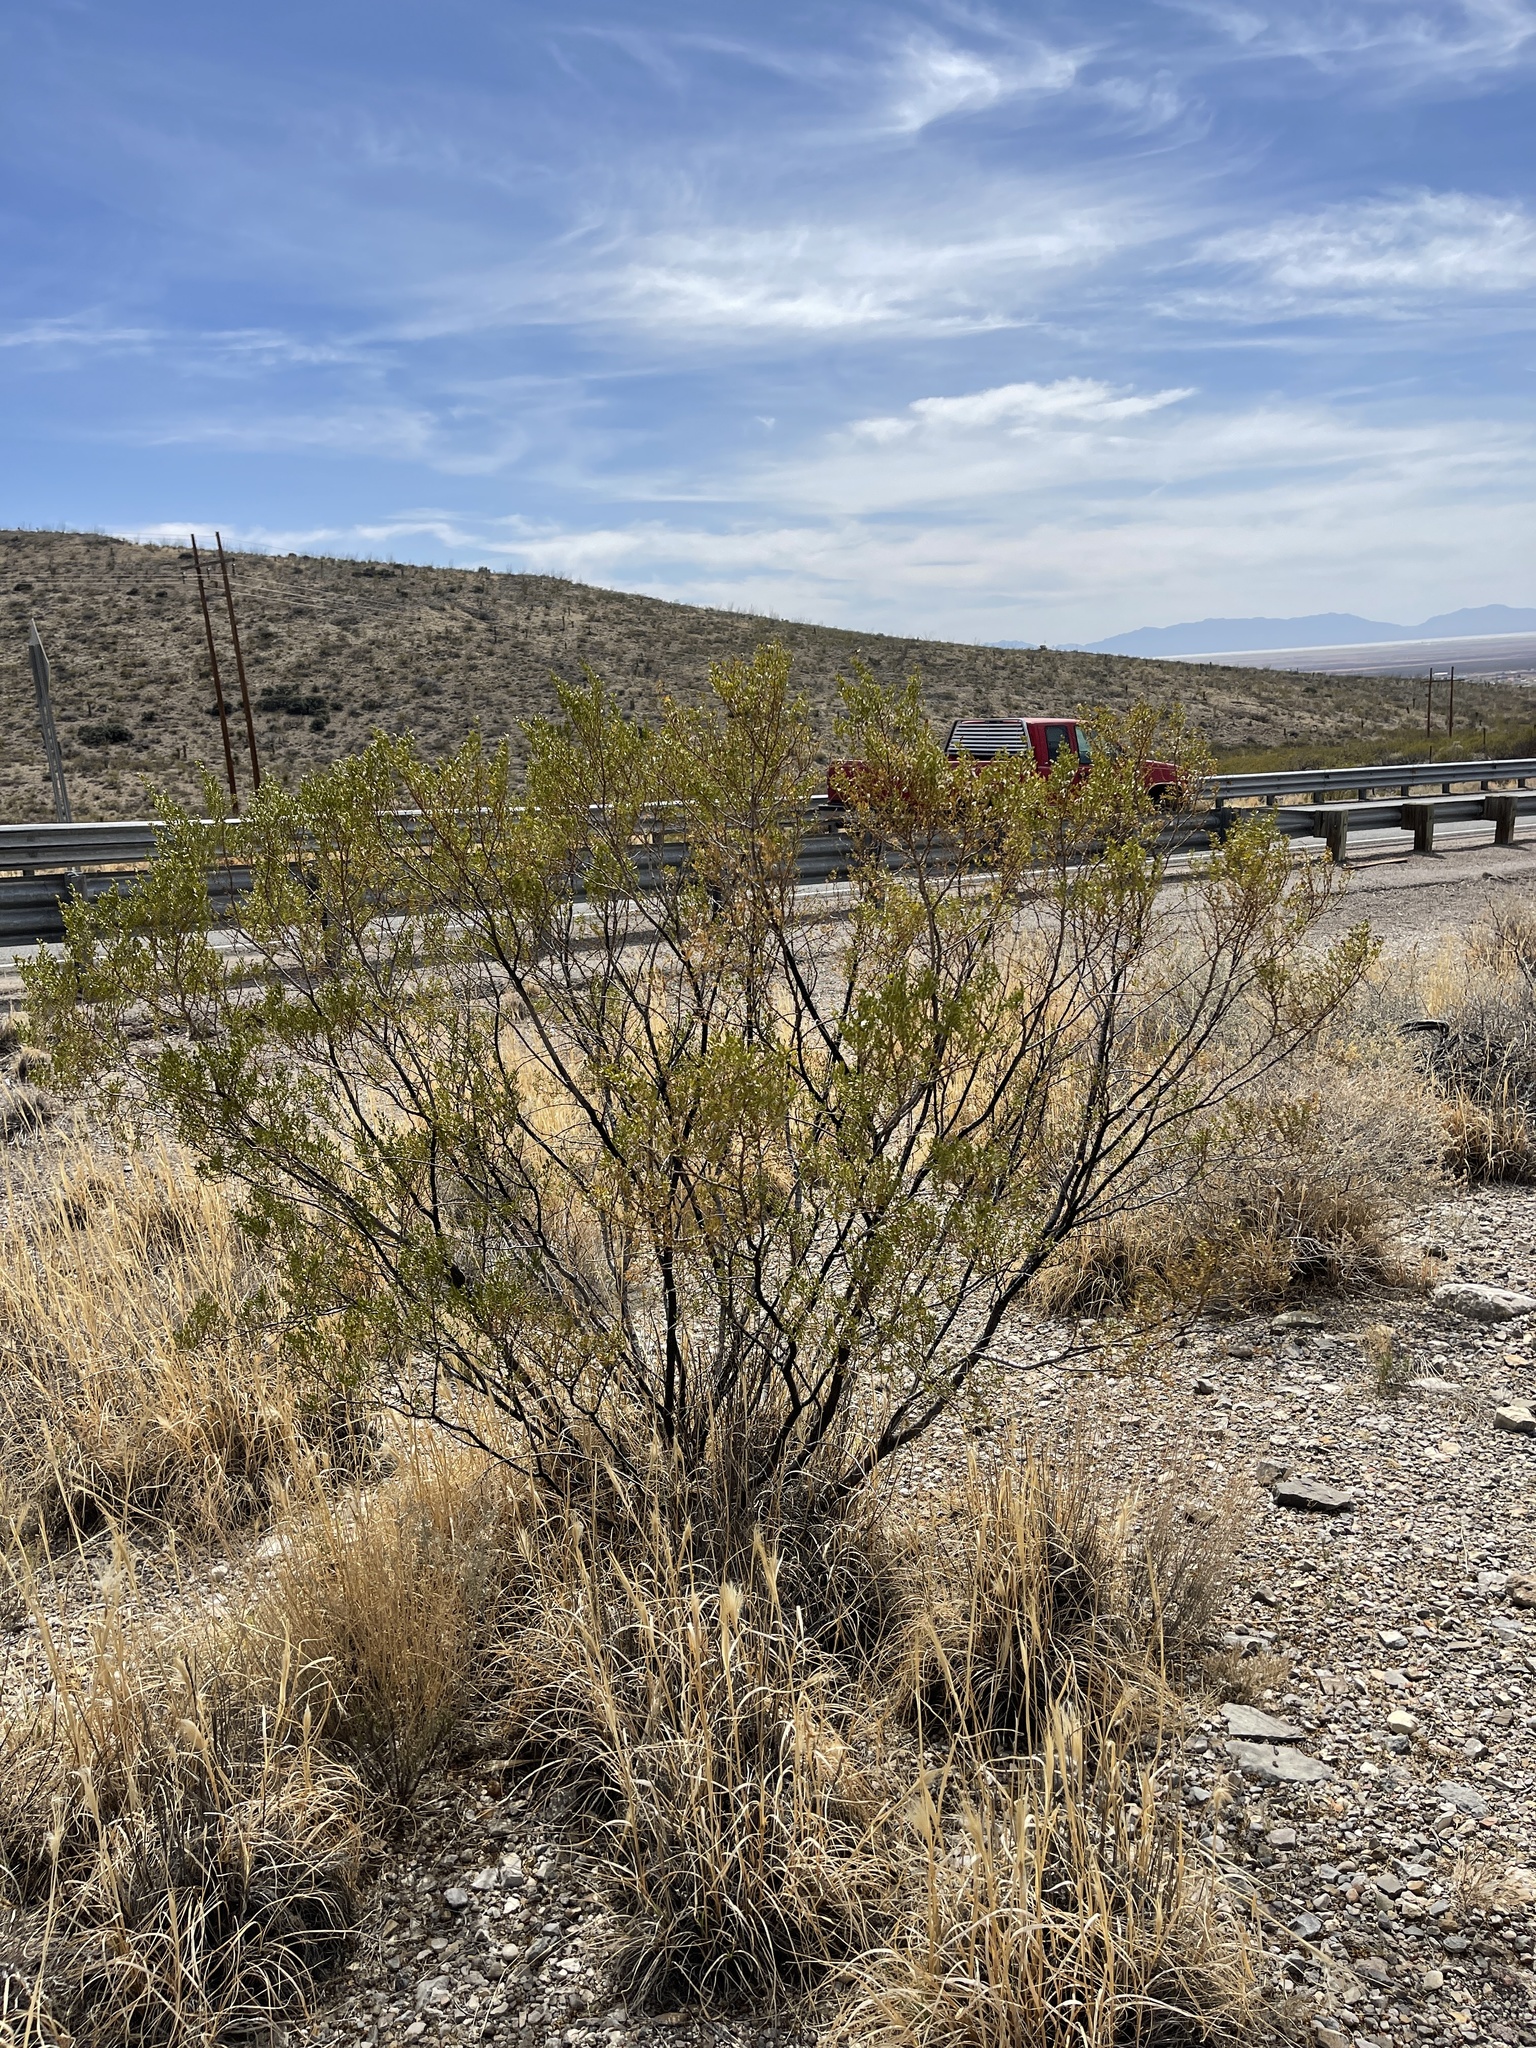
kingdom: Plantae
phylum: Tracheophyta
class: Magnoliopsida
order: Zygophyllales
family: Zygophyllaceae
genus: Larrea
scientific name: Larrea tridentata
